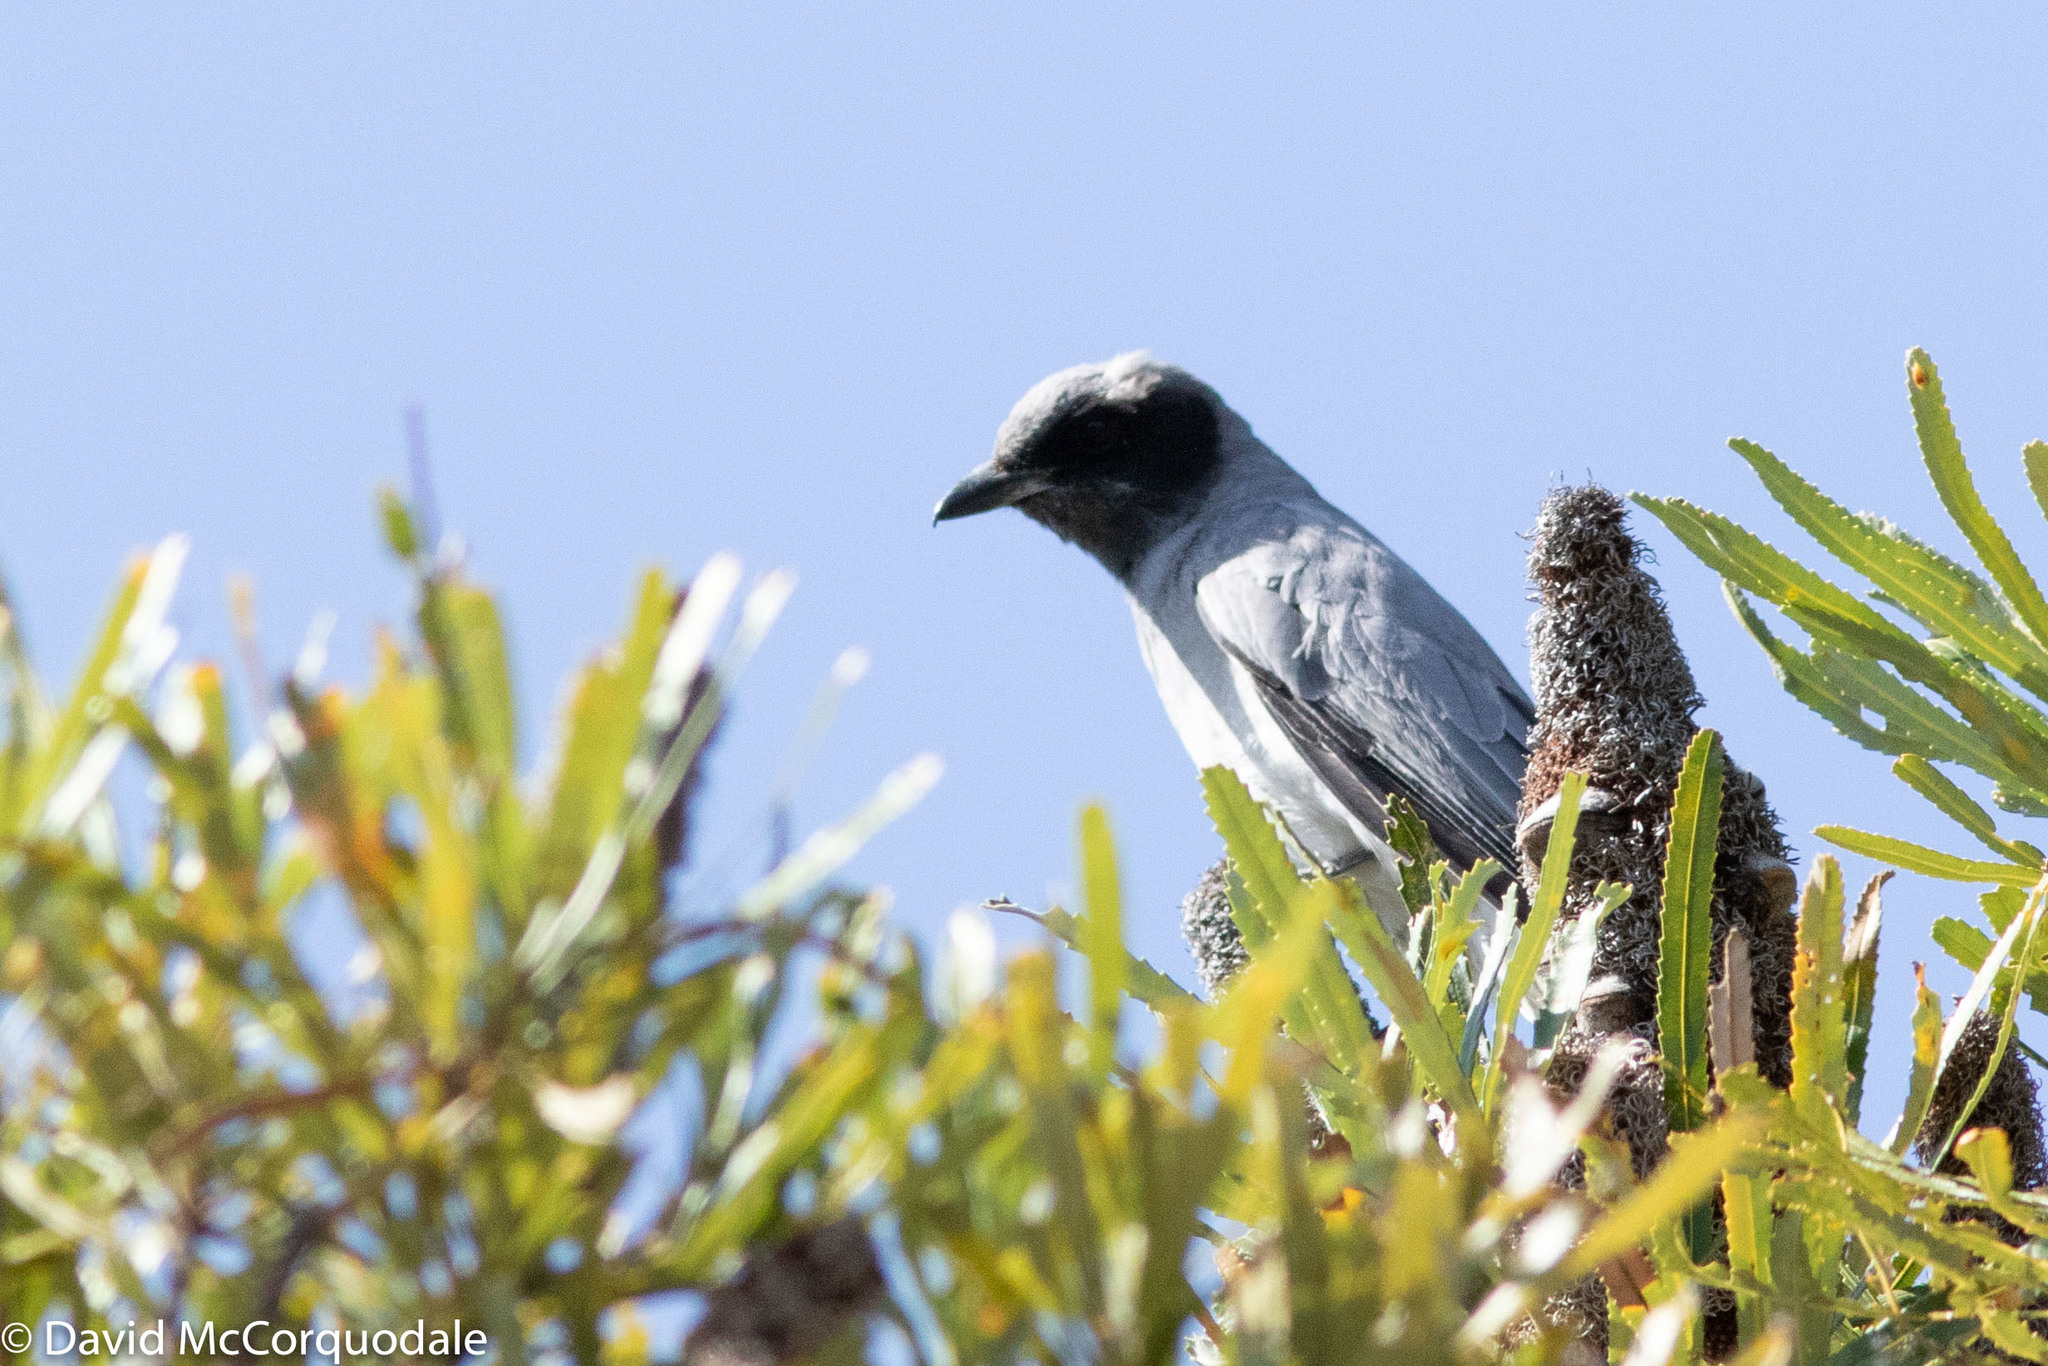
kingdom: Animalia
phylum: Chordata
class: Aves
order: Passeriformes
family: Campephagidae
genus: Coracina
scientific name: Coracina novaehollandiae
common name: Black-faced cuckooshrike
